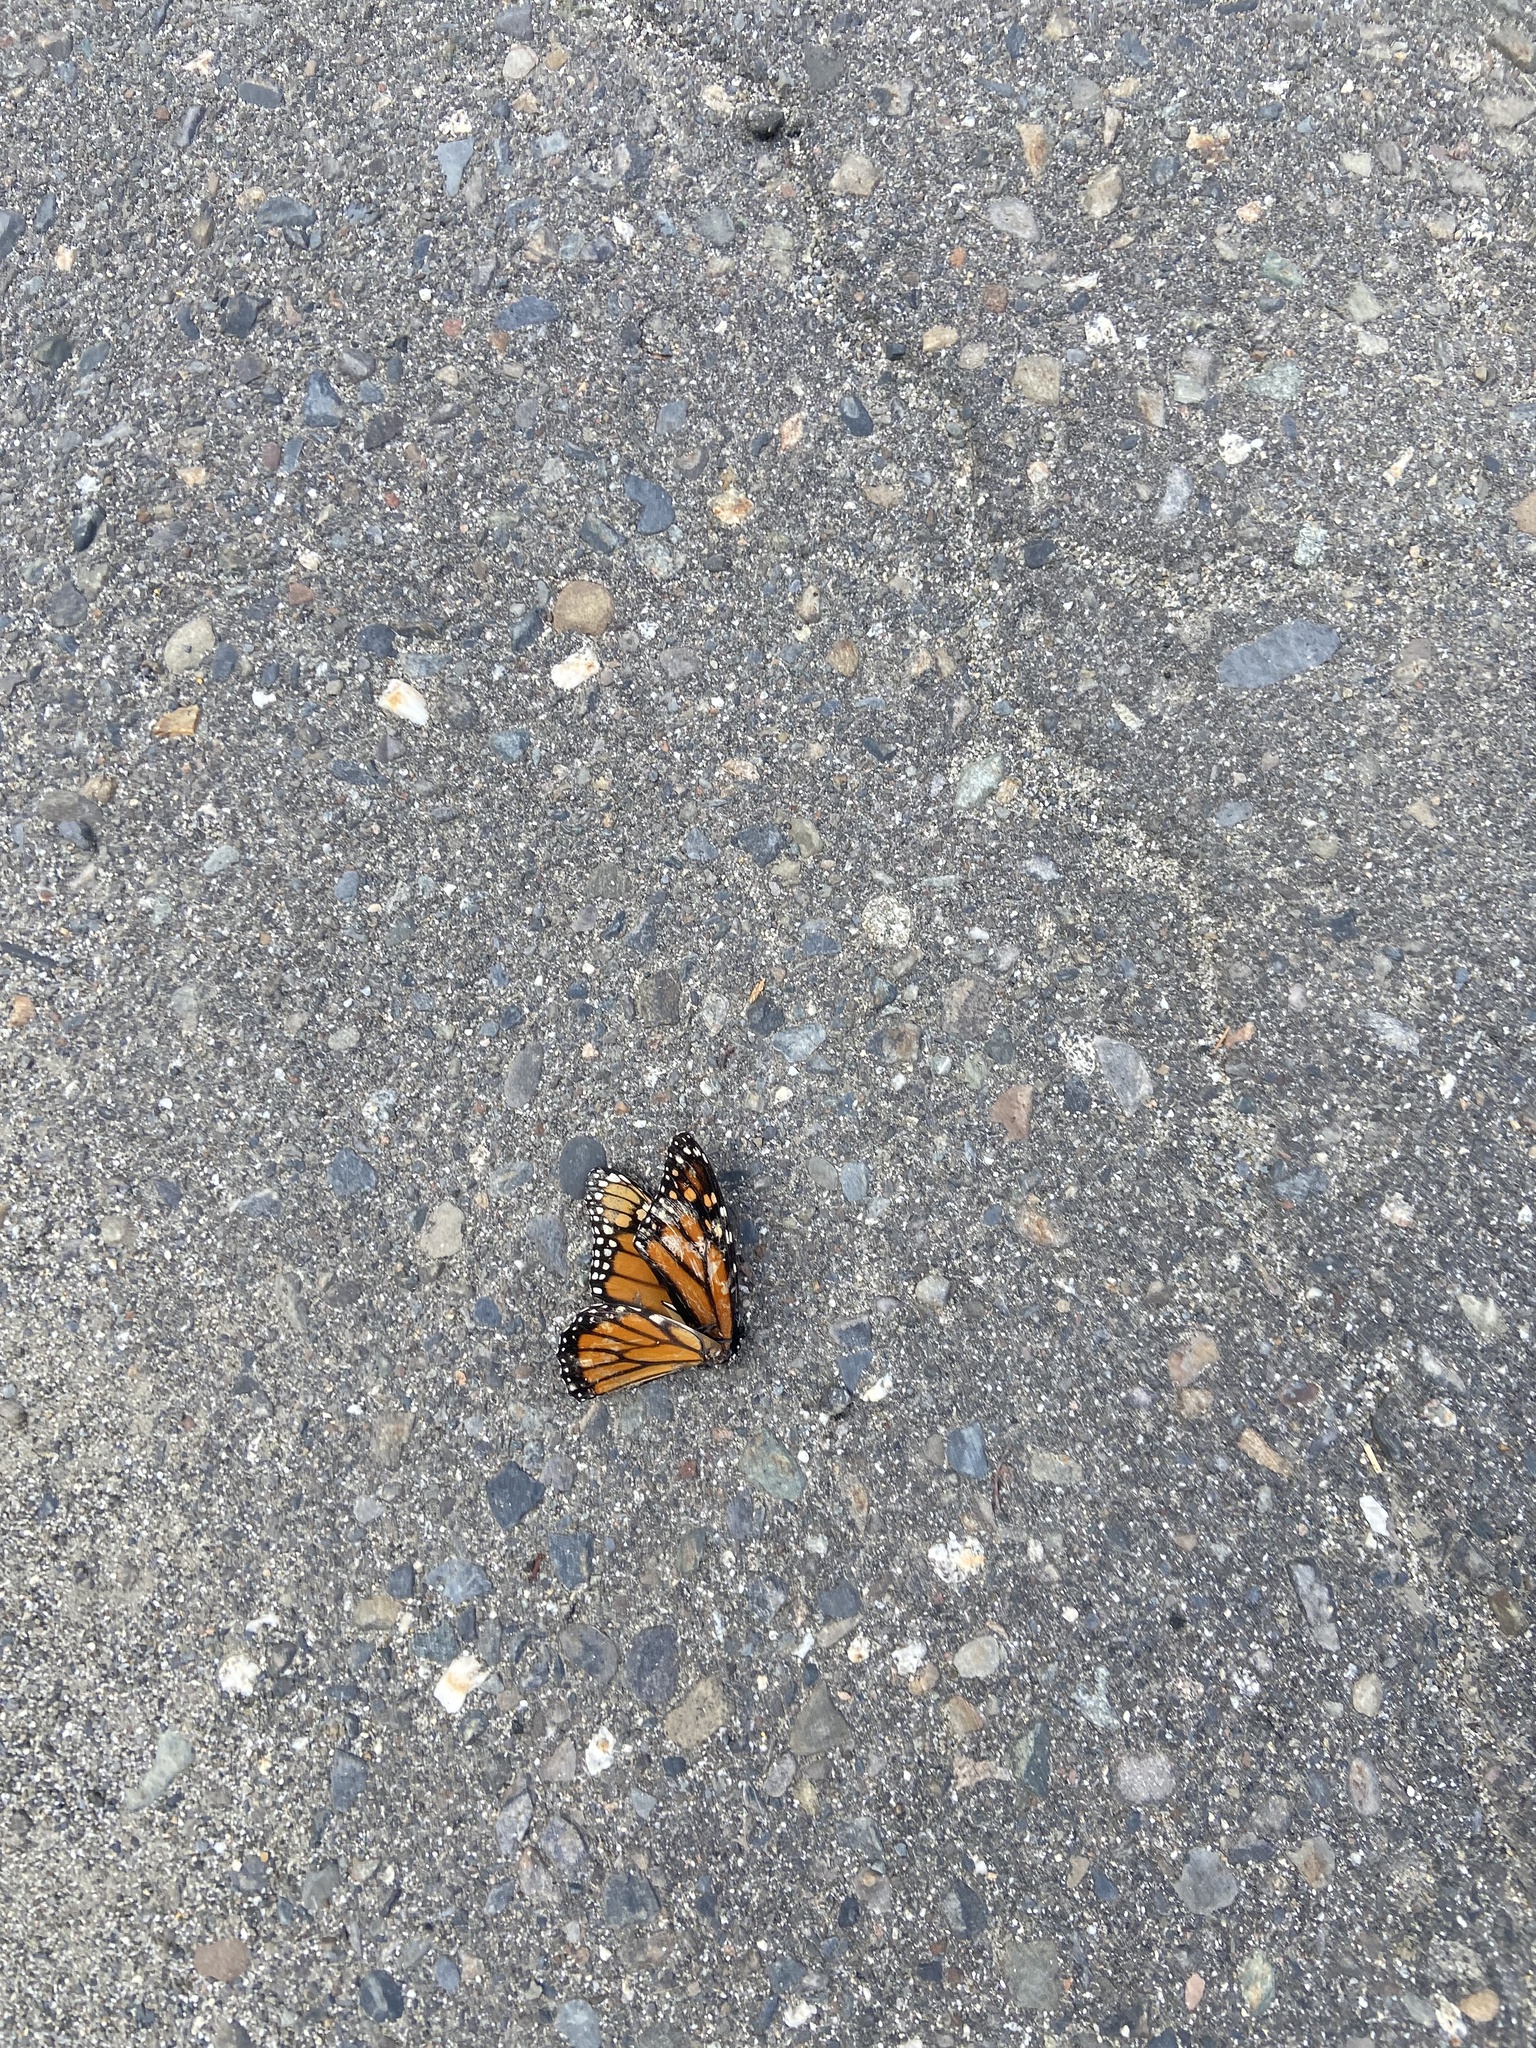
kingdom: Animalia
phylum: Arthropoda
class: Insecta
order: Lepidoptera
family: Nymphalidae
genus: Danaus
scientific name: Danaus plexippus
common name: Monarch
